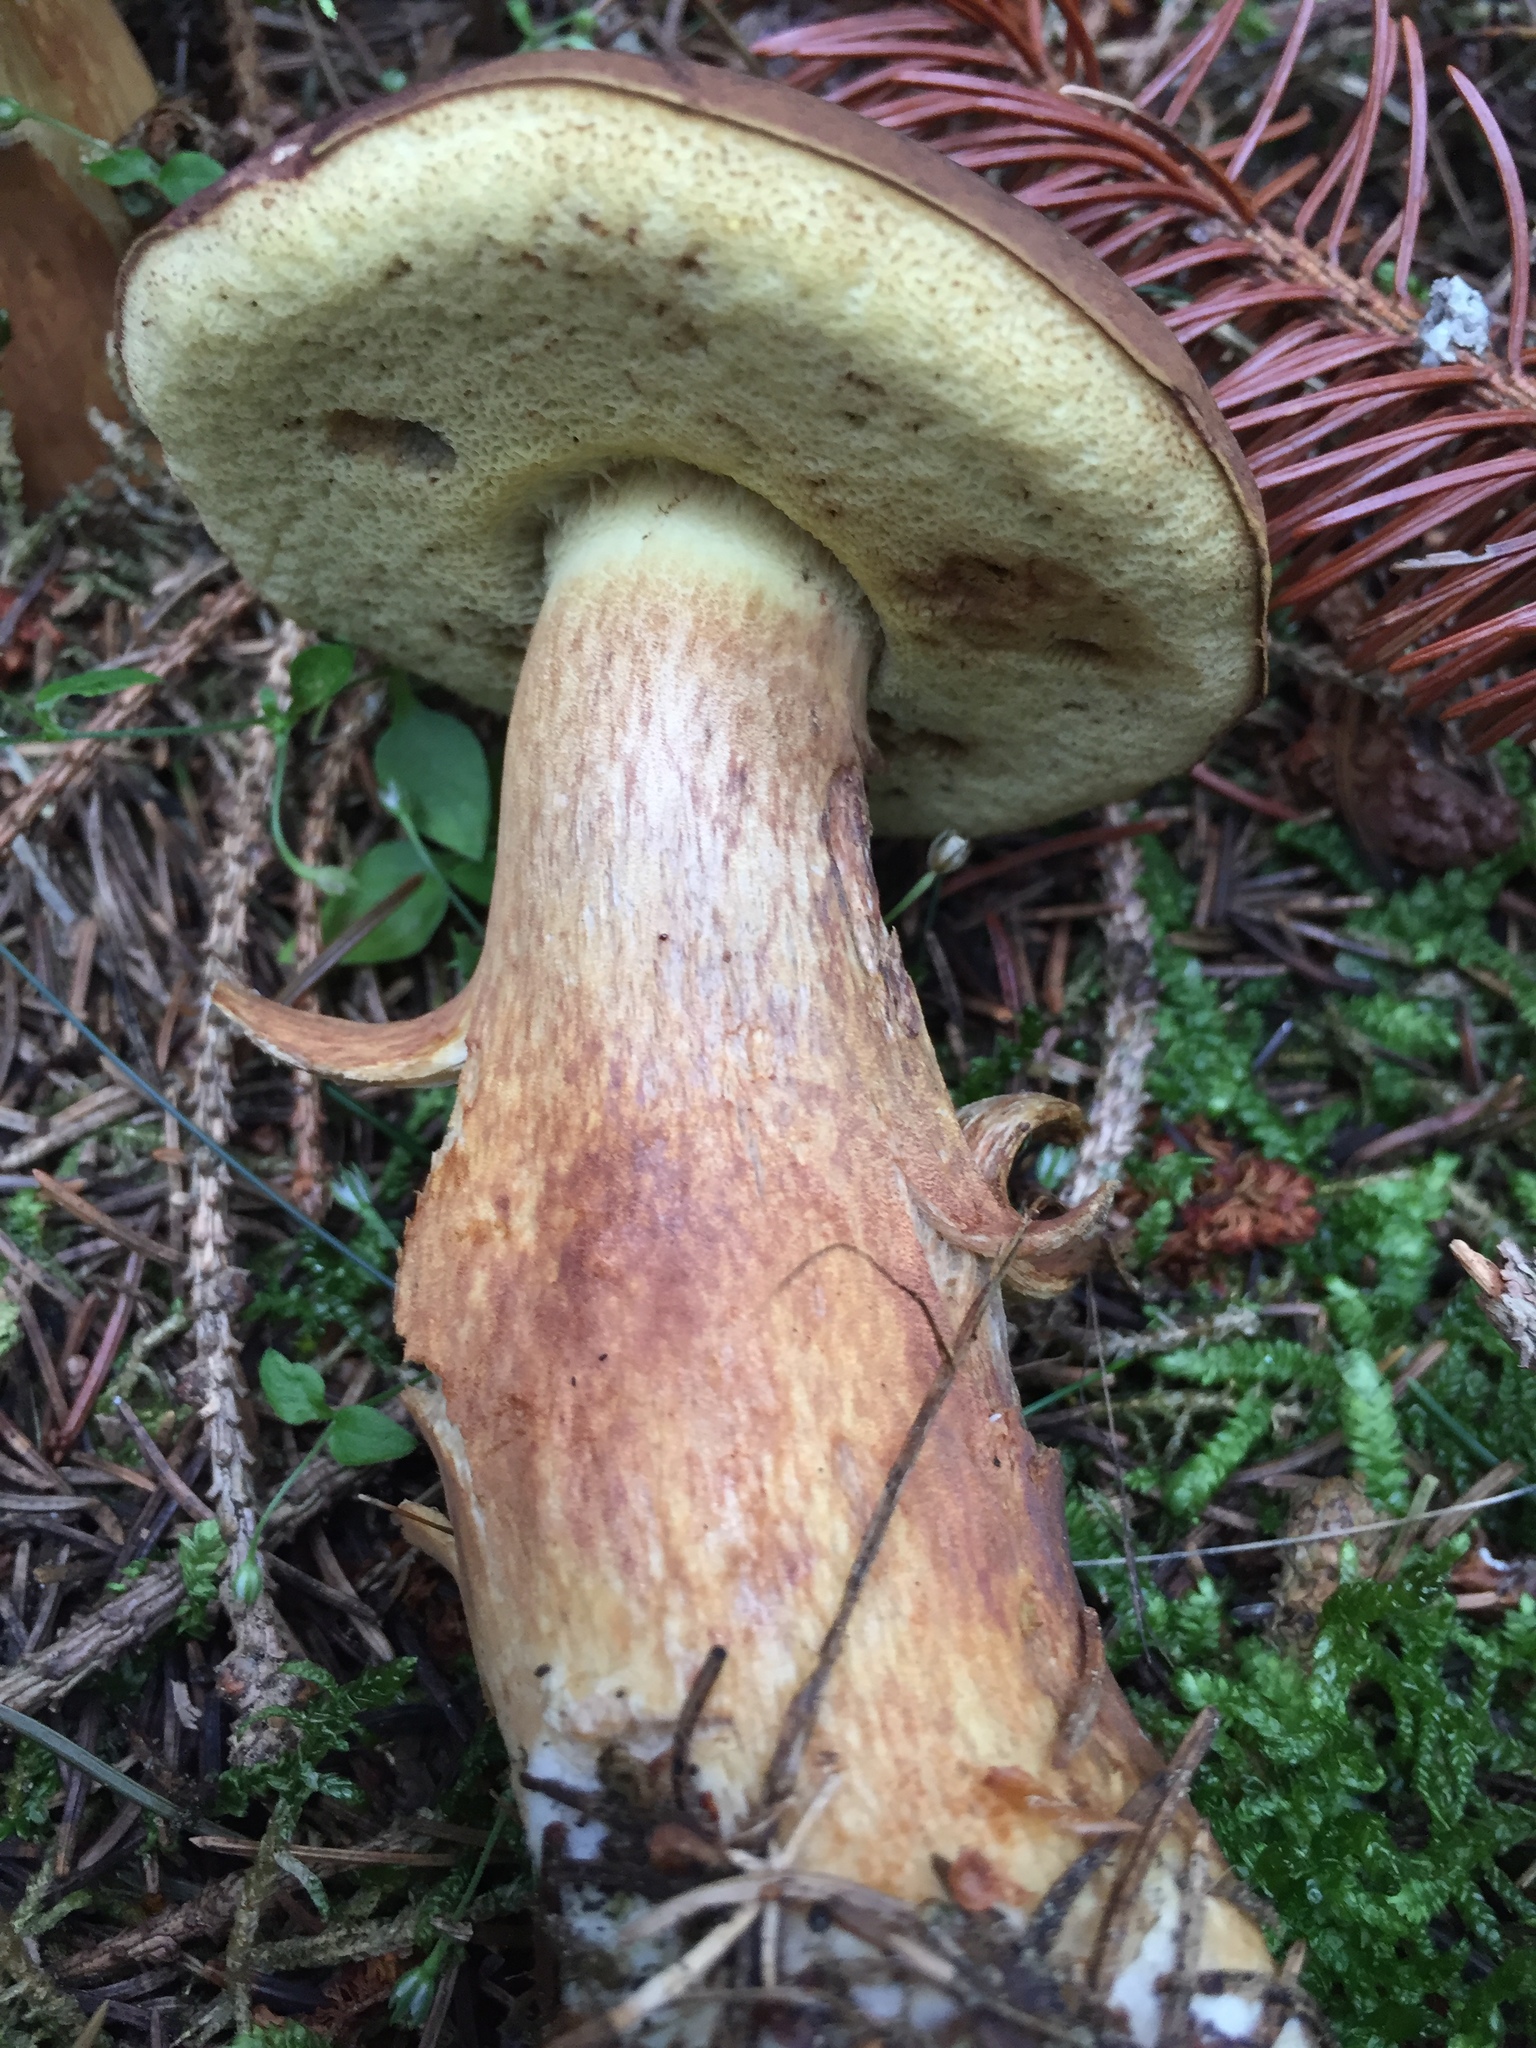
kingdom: Fungi
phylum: Basidiomycota
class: Agaricomycetes
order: Boletales
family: Boletaceae
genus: Imleria
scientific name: Imleria badia
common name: Bay bolete
